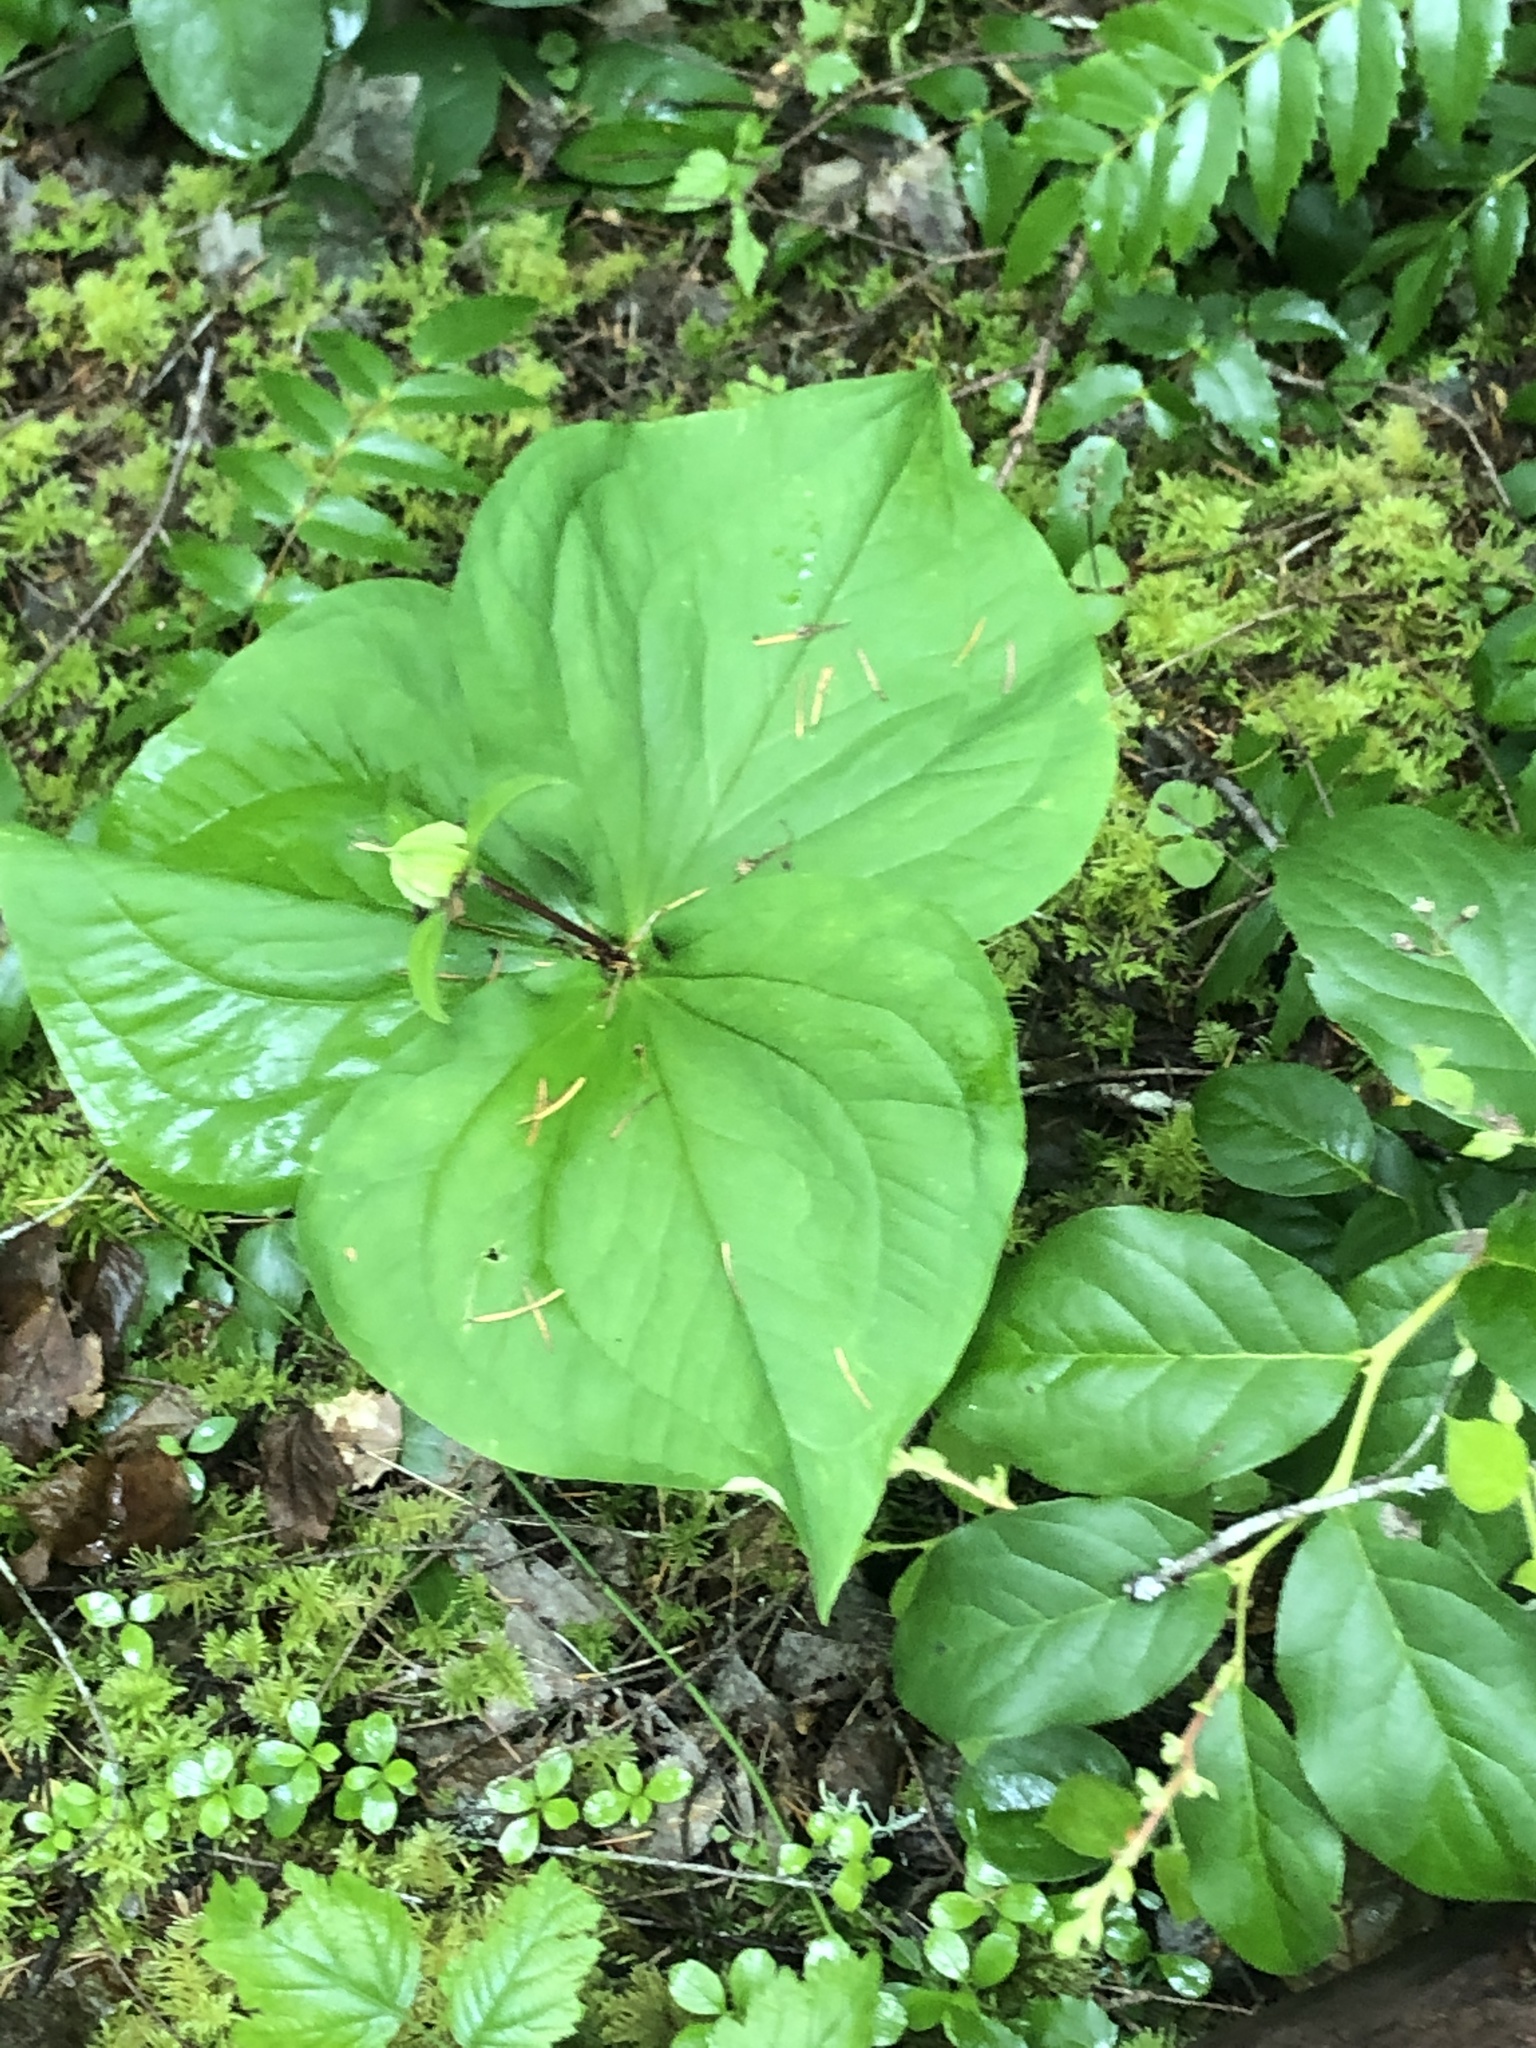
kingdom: Plantae
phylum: Tracheophyta
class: Liliopsida
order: Liliales
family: Melanthiaceae
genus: Trillium
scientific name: Trillium ovatum
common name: Pacific trillium
